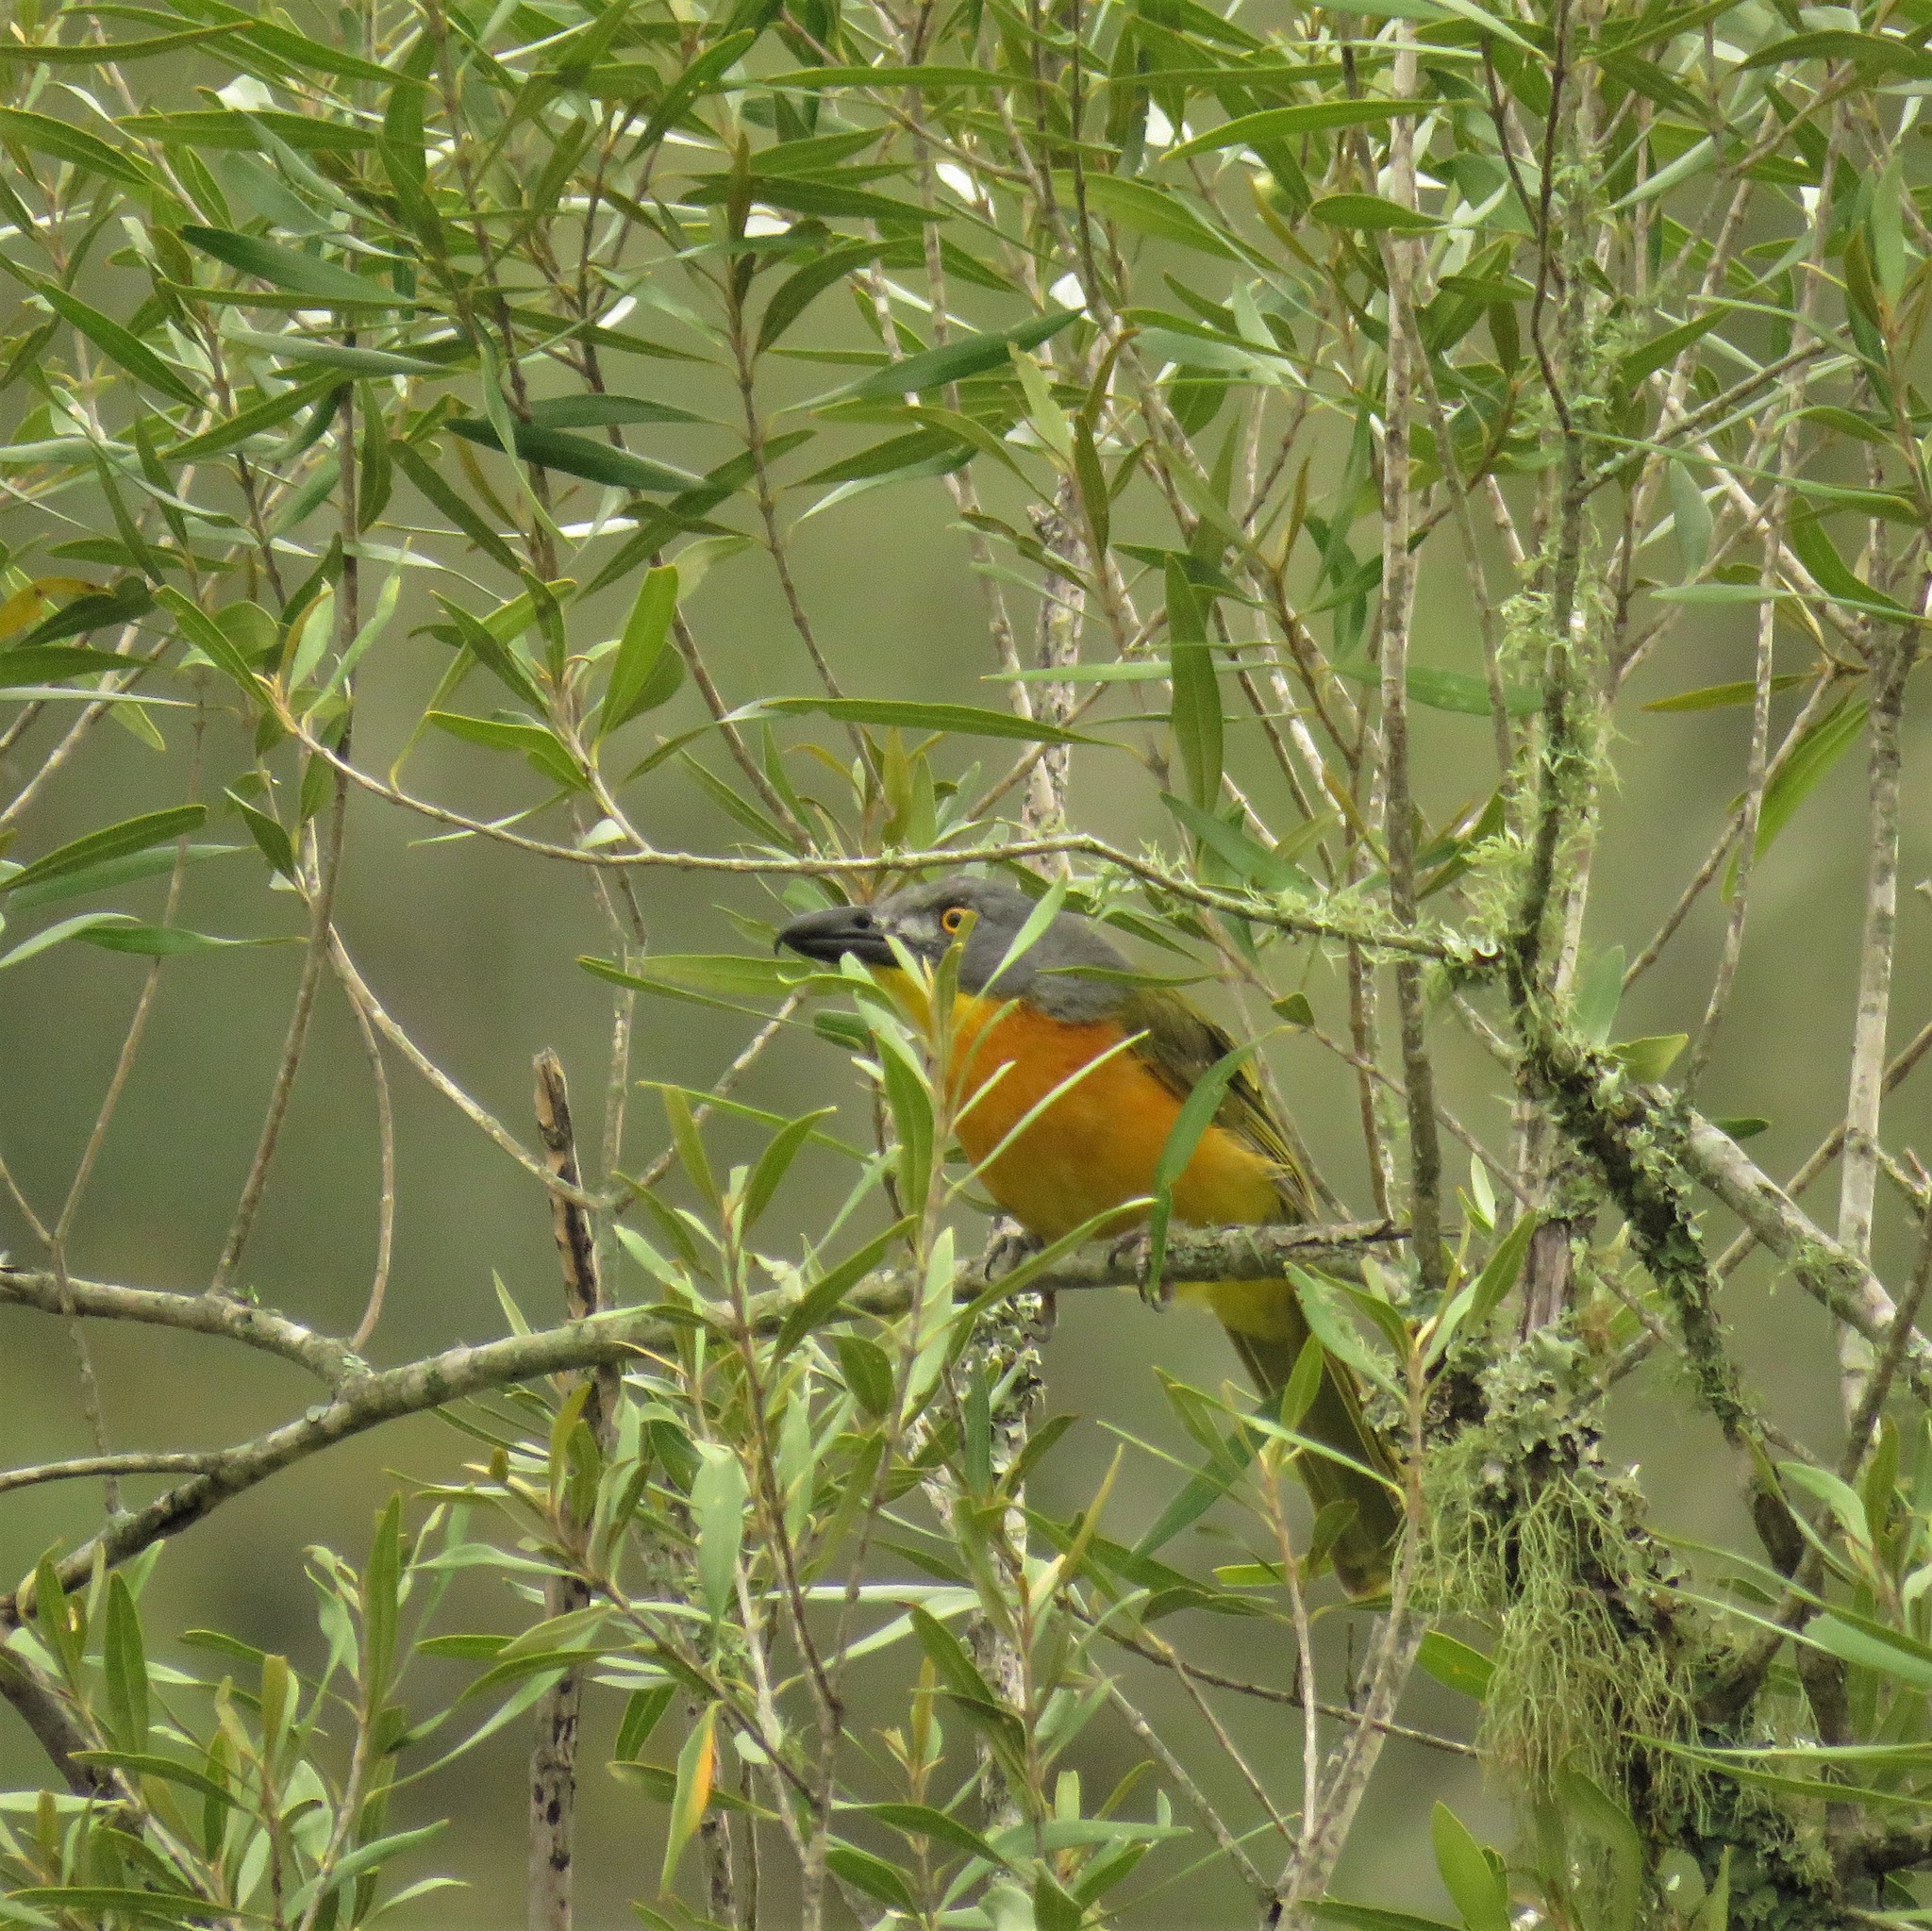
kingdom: Animalia
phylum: Chordata
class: Aves
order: Passeriformes
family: Malaconotidae
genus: Malaconotus
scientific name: Malaconotus blanchoti
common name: Grey-headed bushshrike
